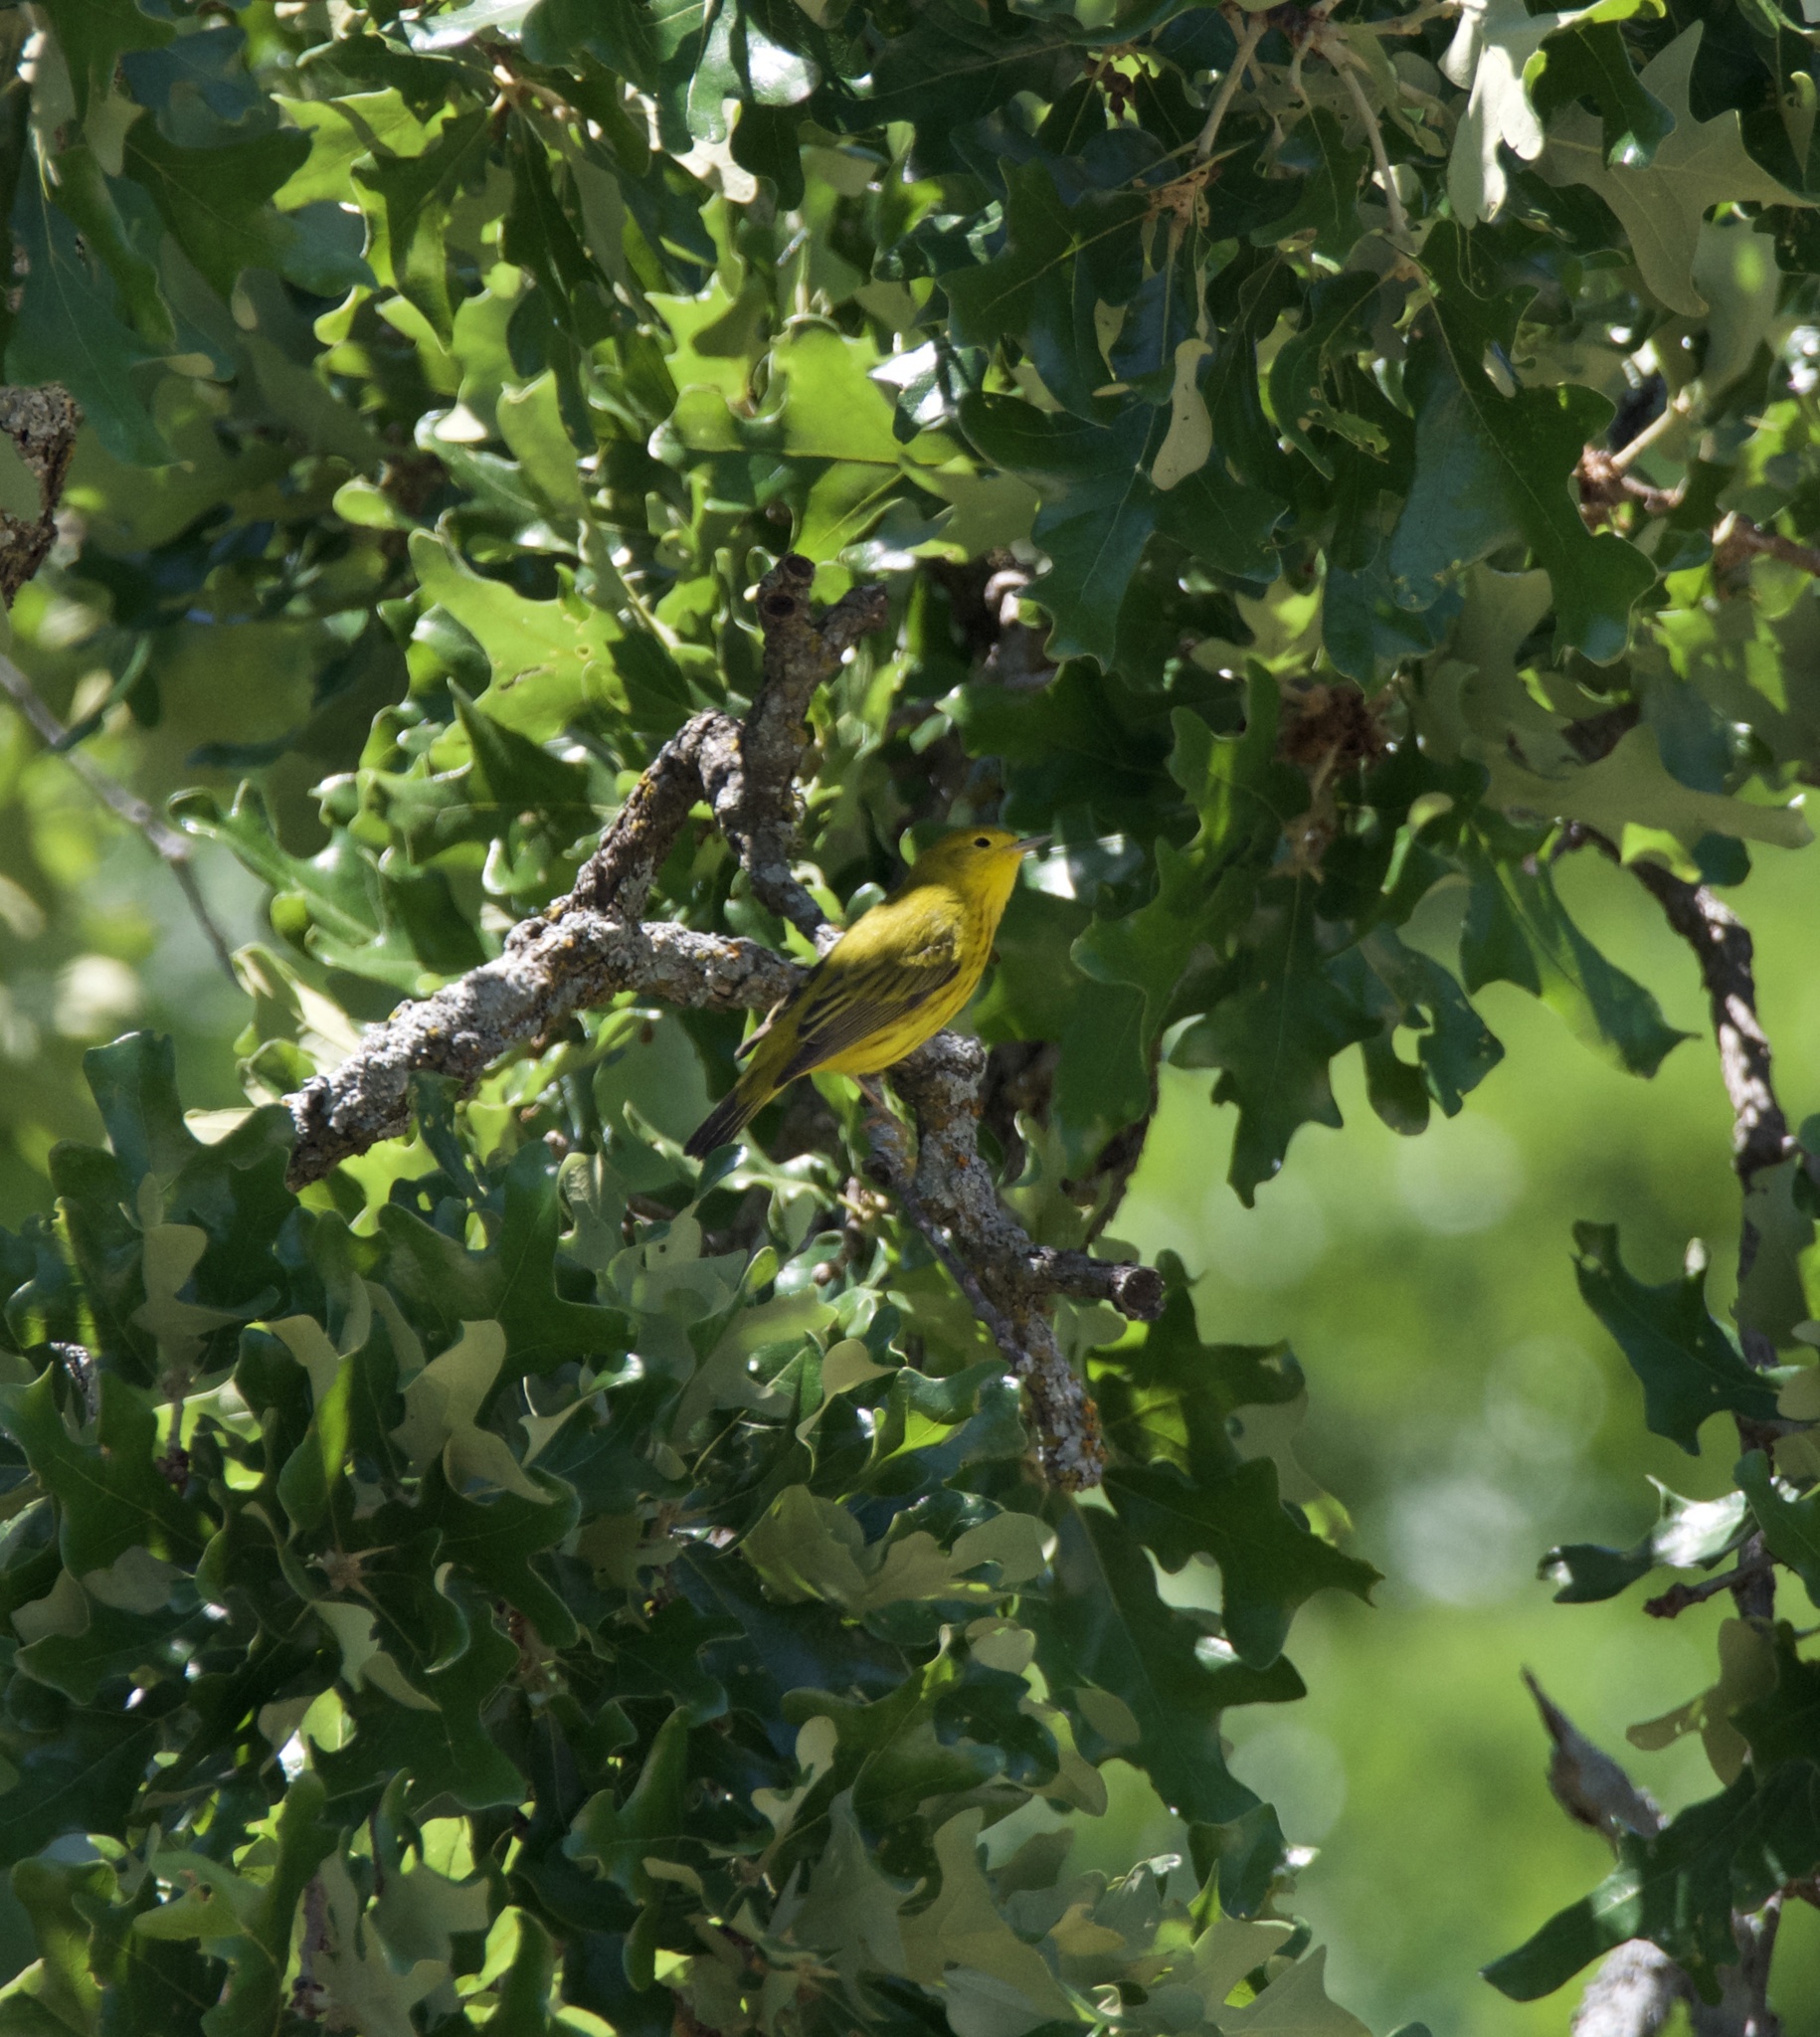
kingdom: Animalia
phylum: Chordata
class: Aves
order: Passeriformes
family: Parulidae
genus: Setophaga
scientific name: Setophaga petechia
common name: Yellow warbler
